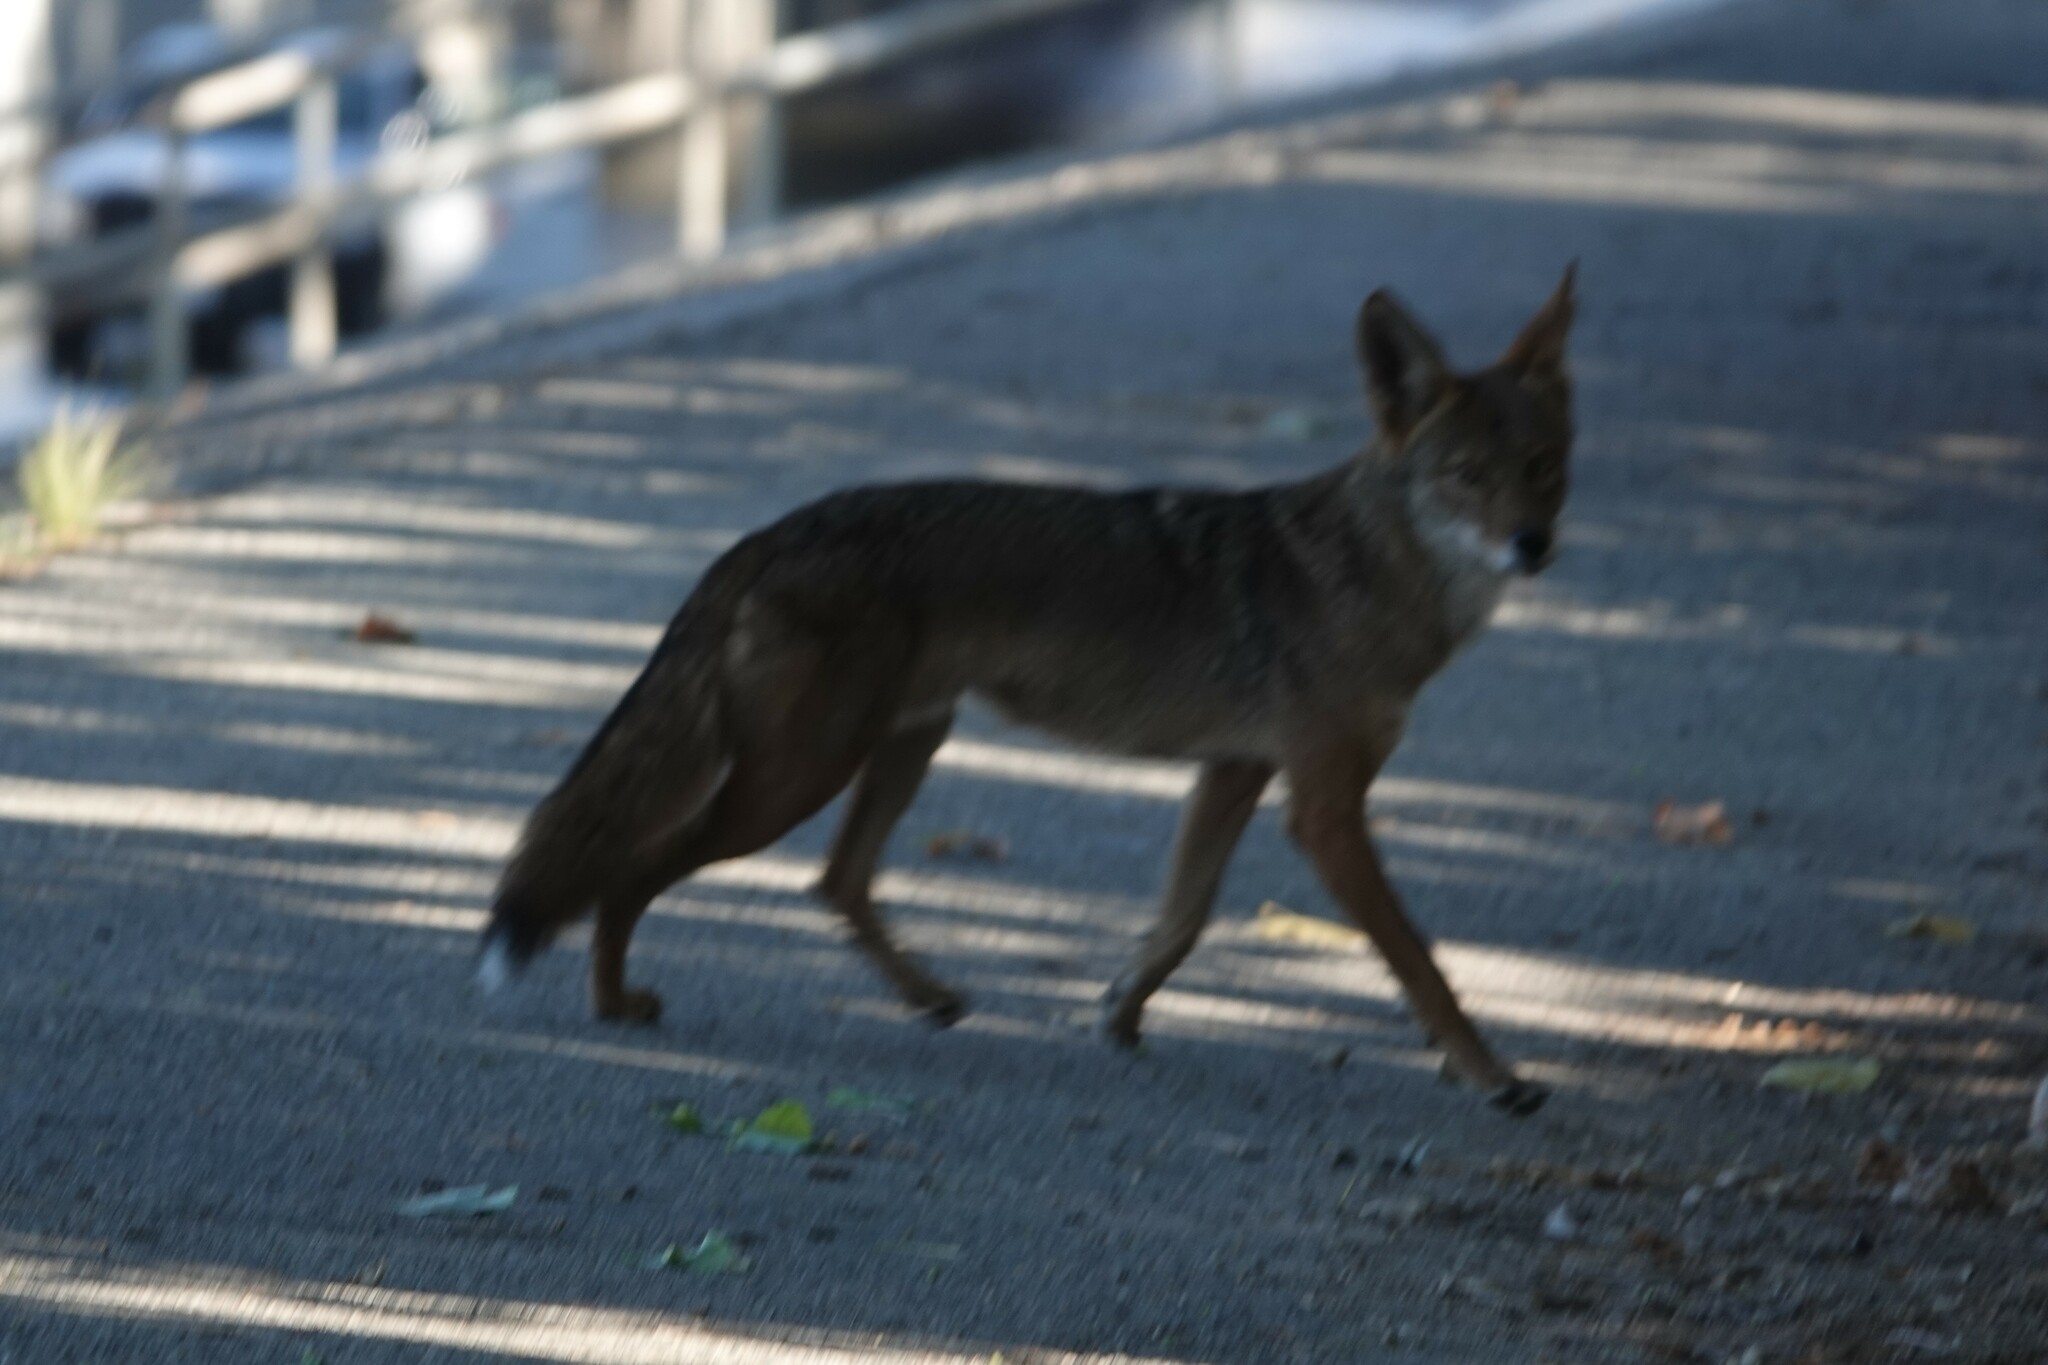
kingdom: Animalia
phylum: Chordata
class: Mammalia
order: Carnivora
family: Canidae
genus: Canis
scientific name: Canis latrans
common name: Coyote
